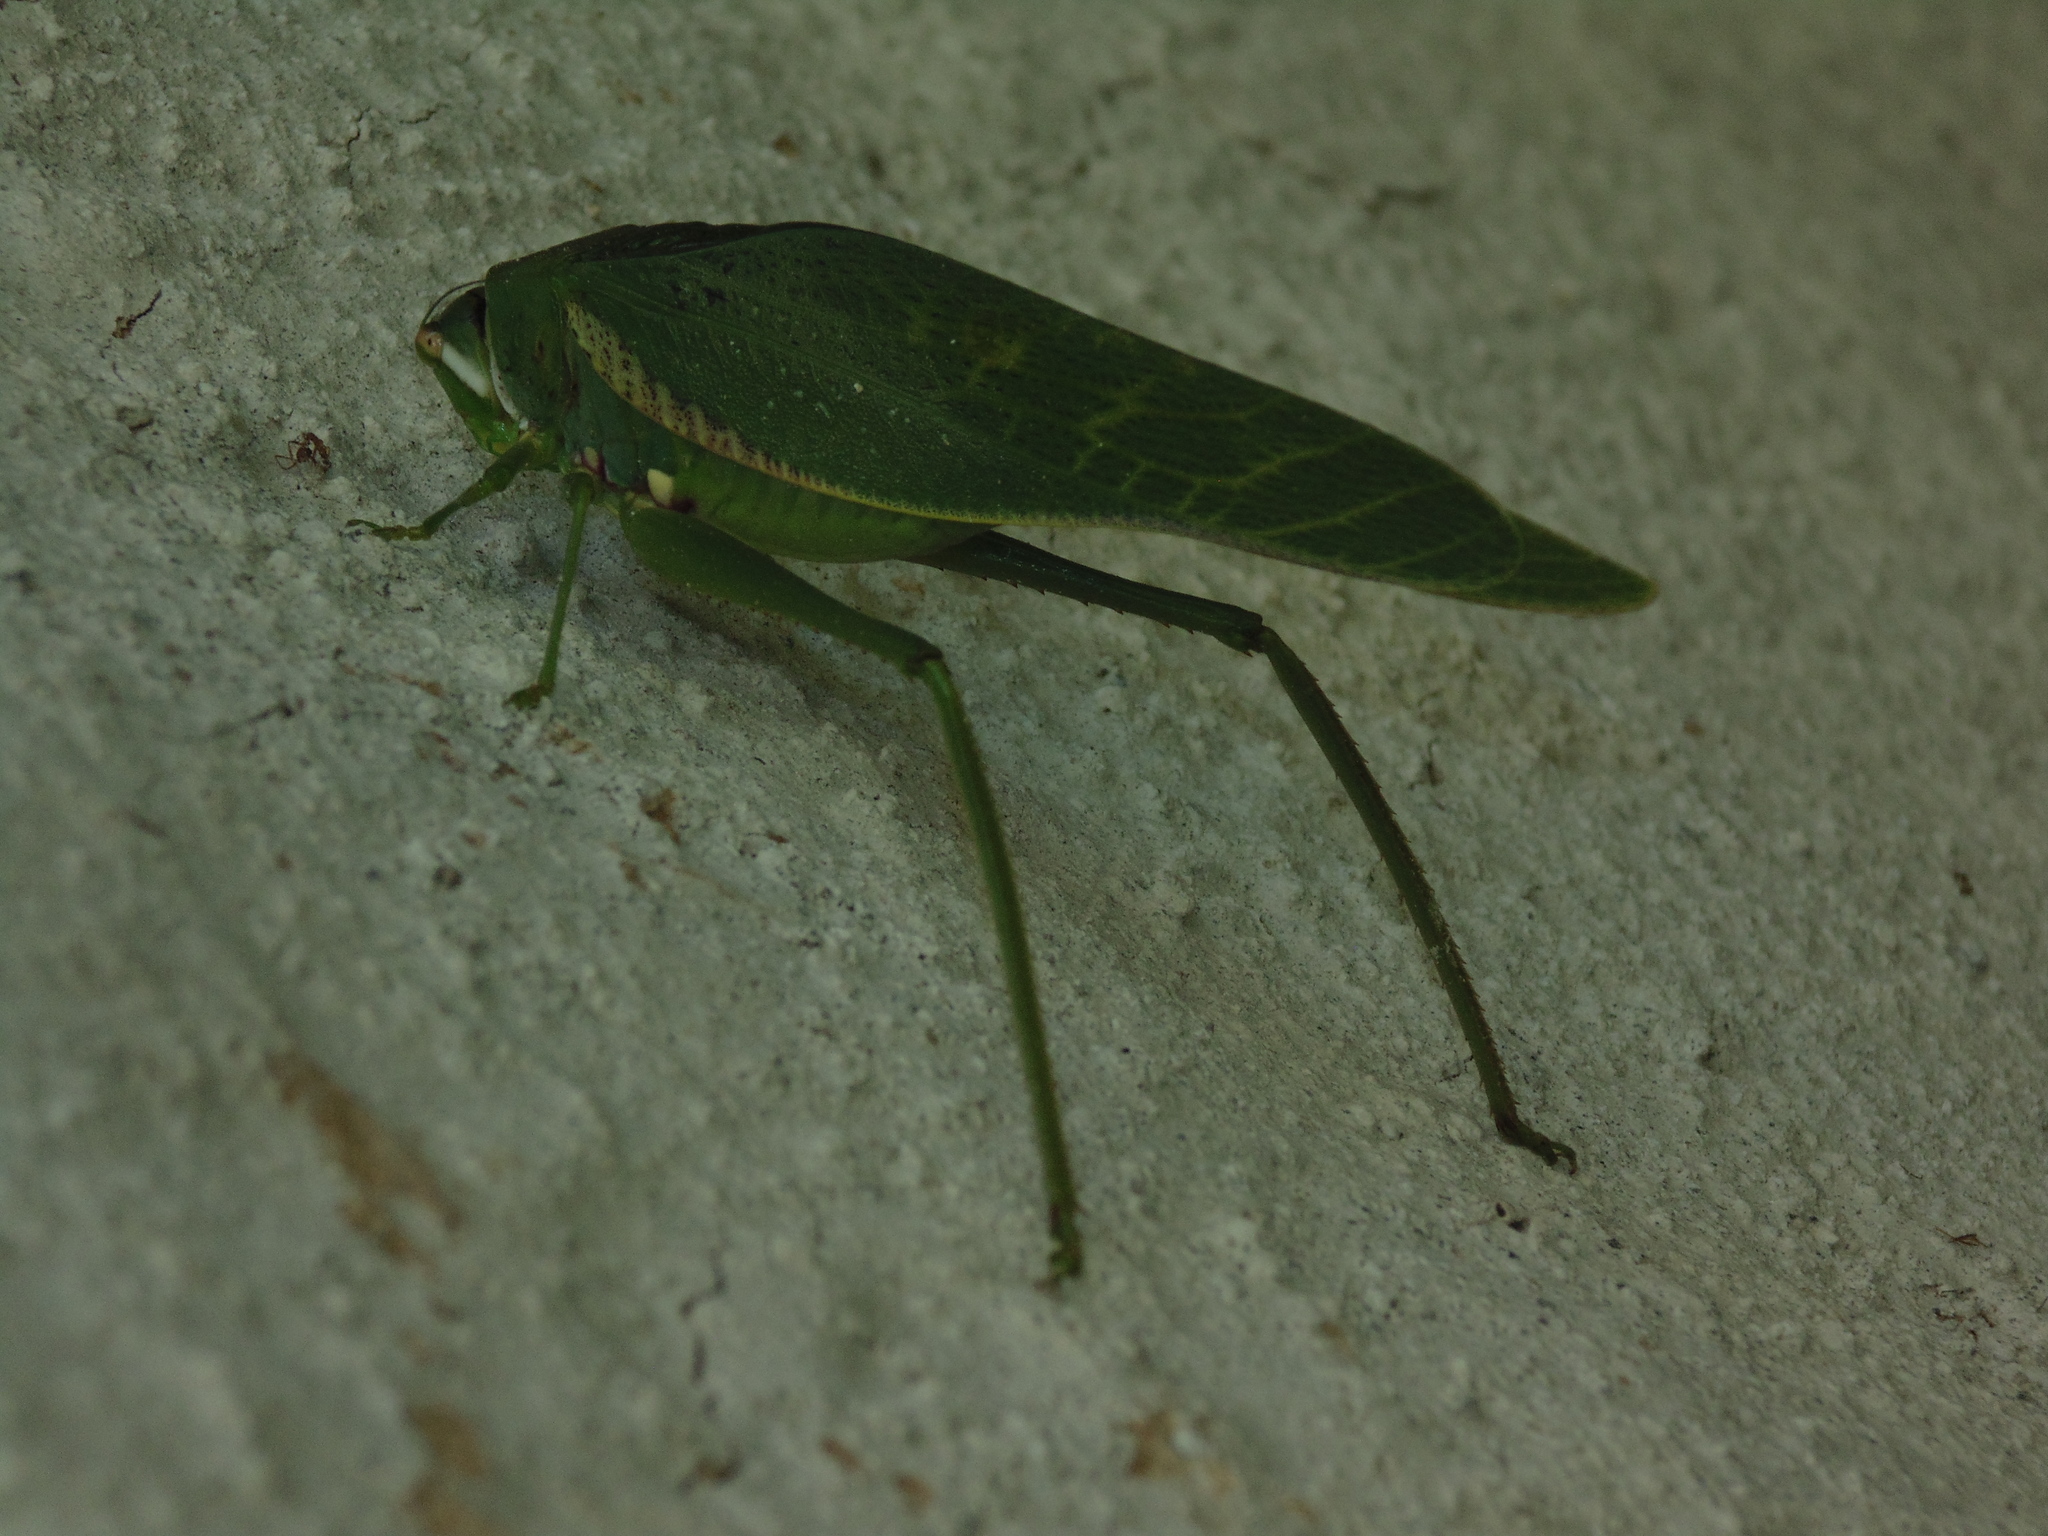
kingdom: Animalia
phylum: Arthropoda
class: Insecta
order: Orthoptera
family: Tettigoniidae
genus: Philophyllia
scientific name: Philophyllia guttulata
